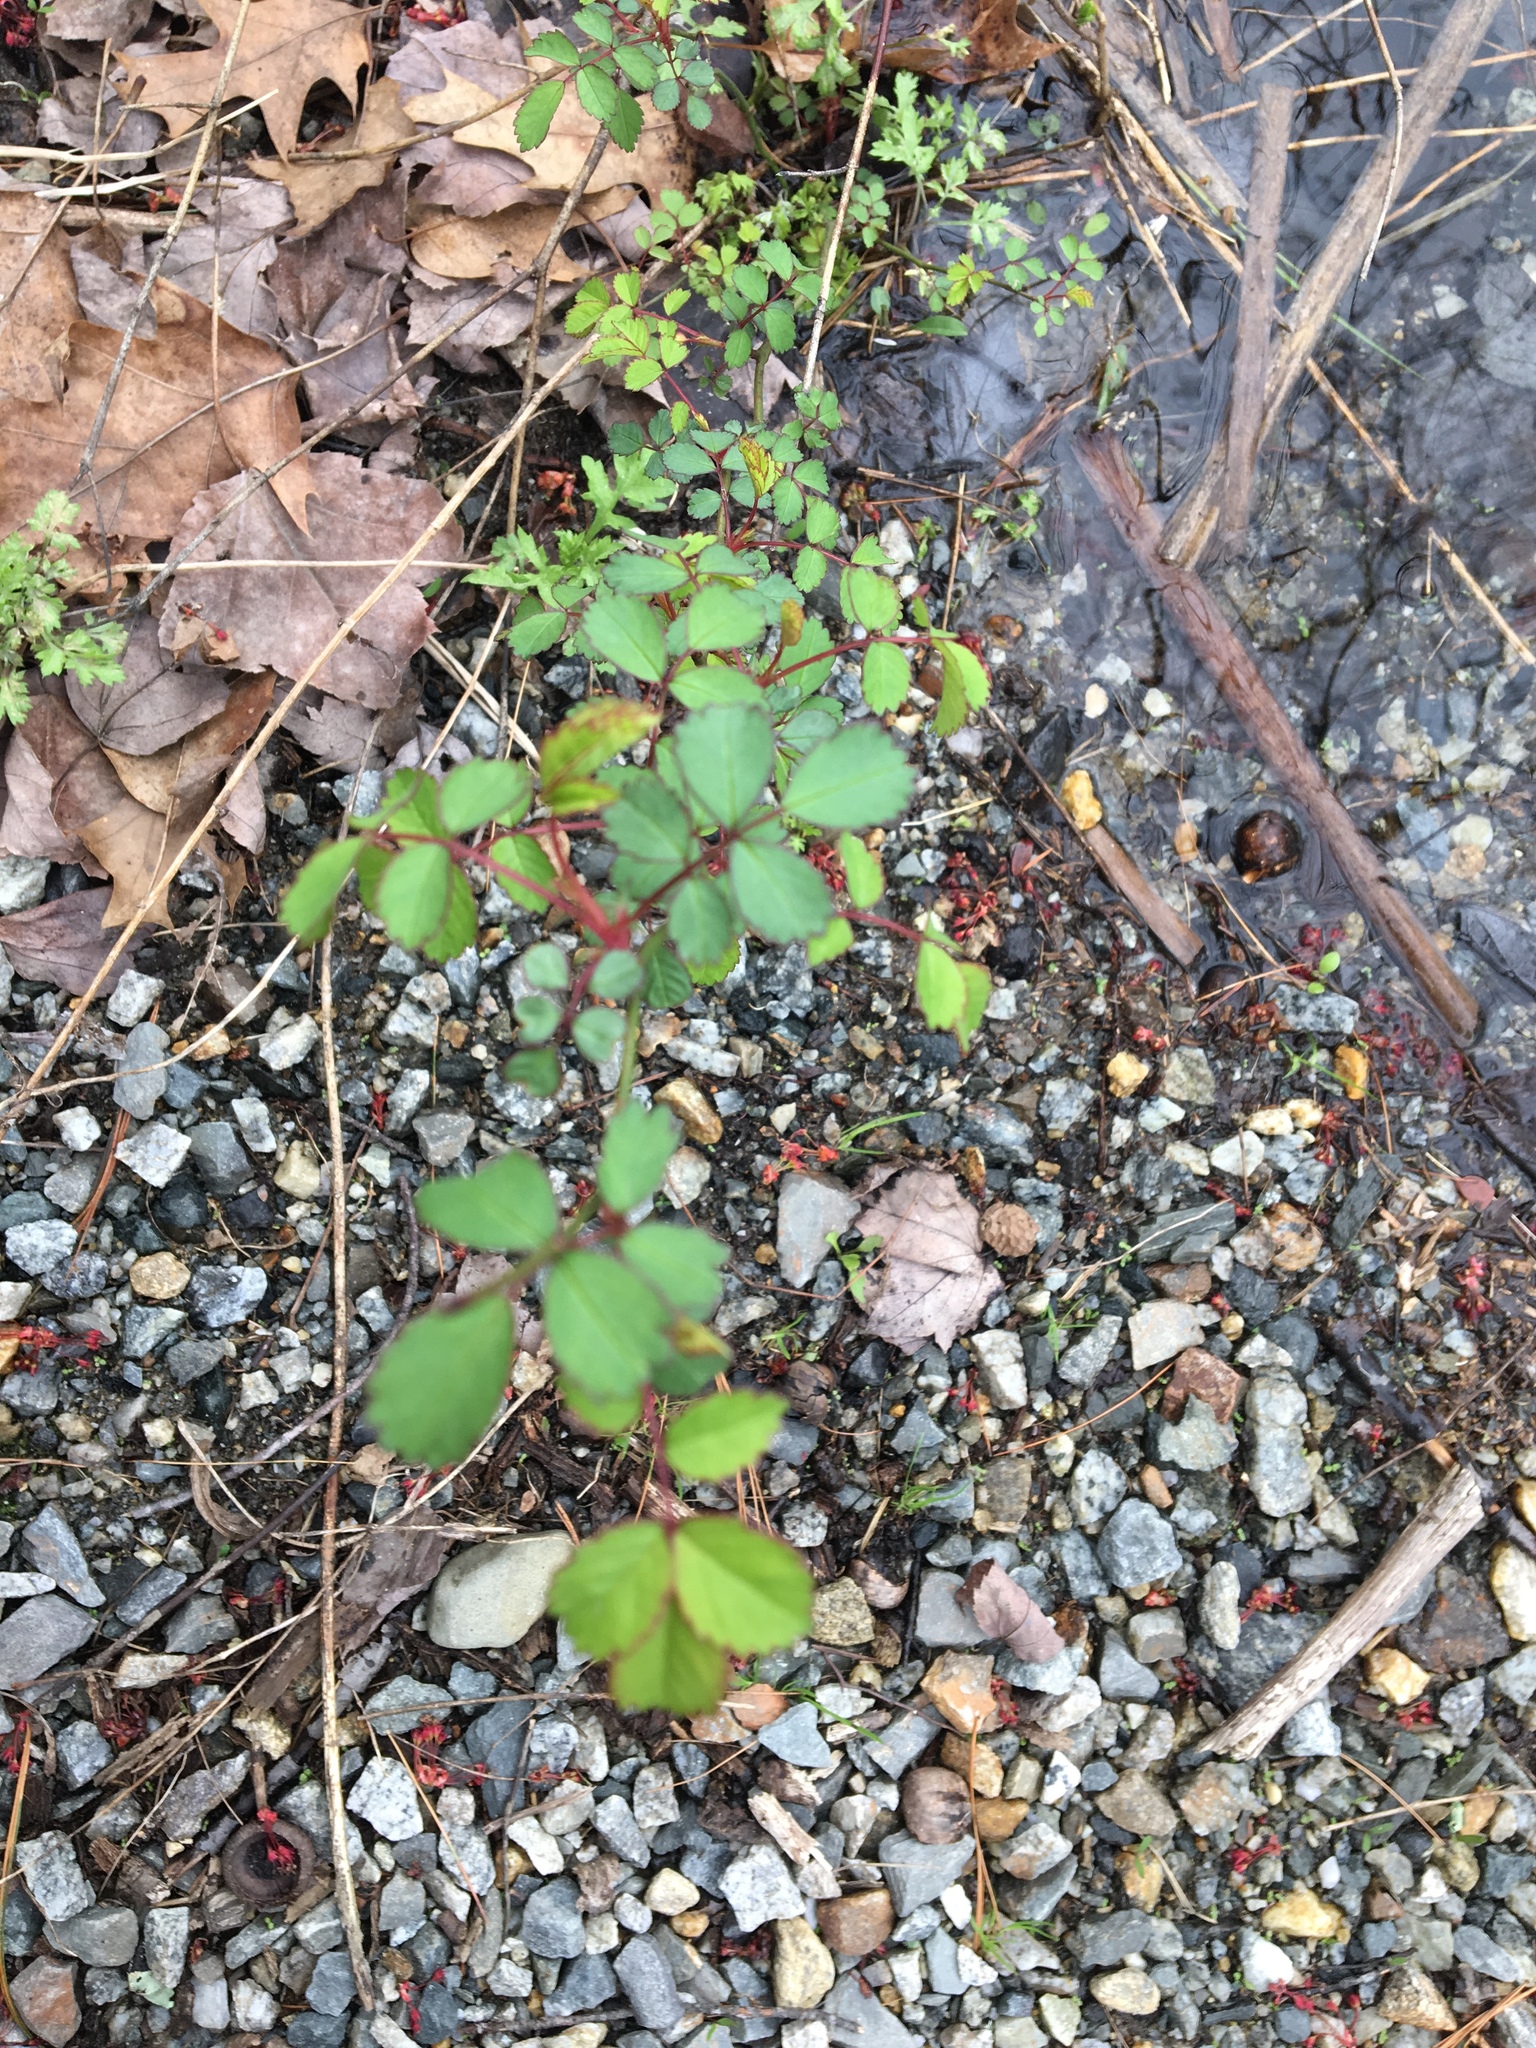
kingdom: Plantae
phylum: Tracheophyta
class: Magnoliopsida
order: Rosales
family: Rosaceae
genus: Rosa
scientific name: Rosa multiflora
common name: Multiflora rose
